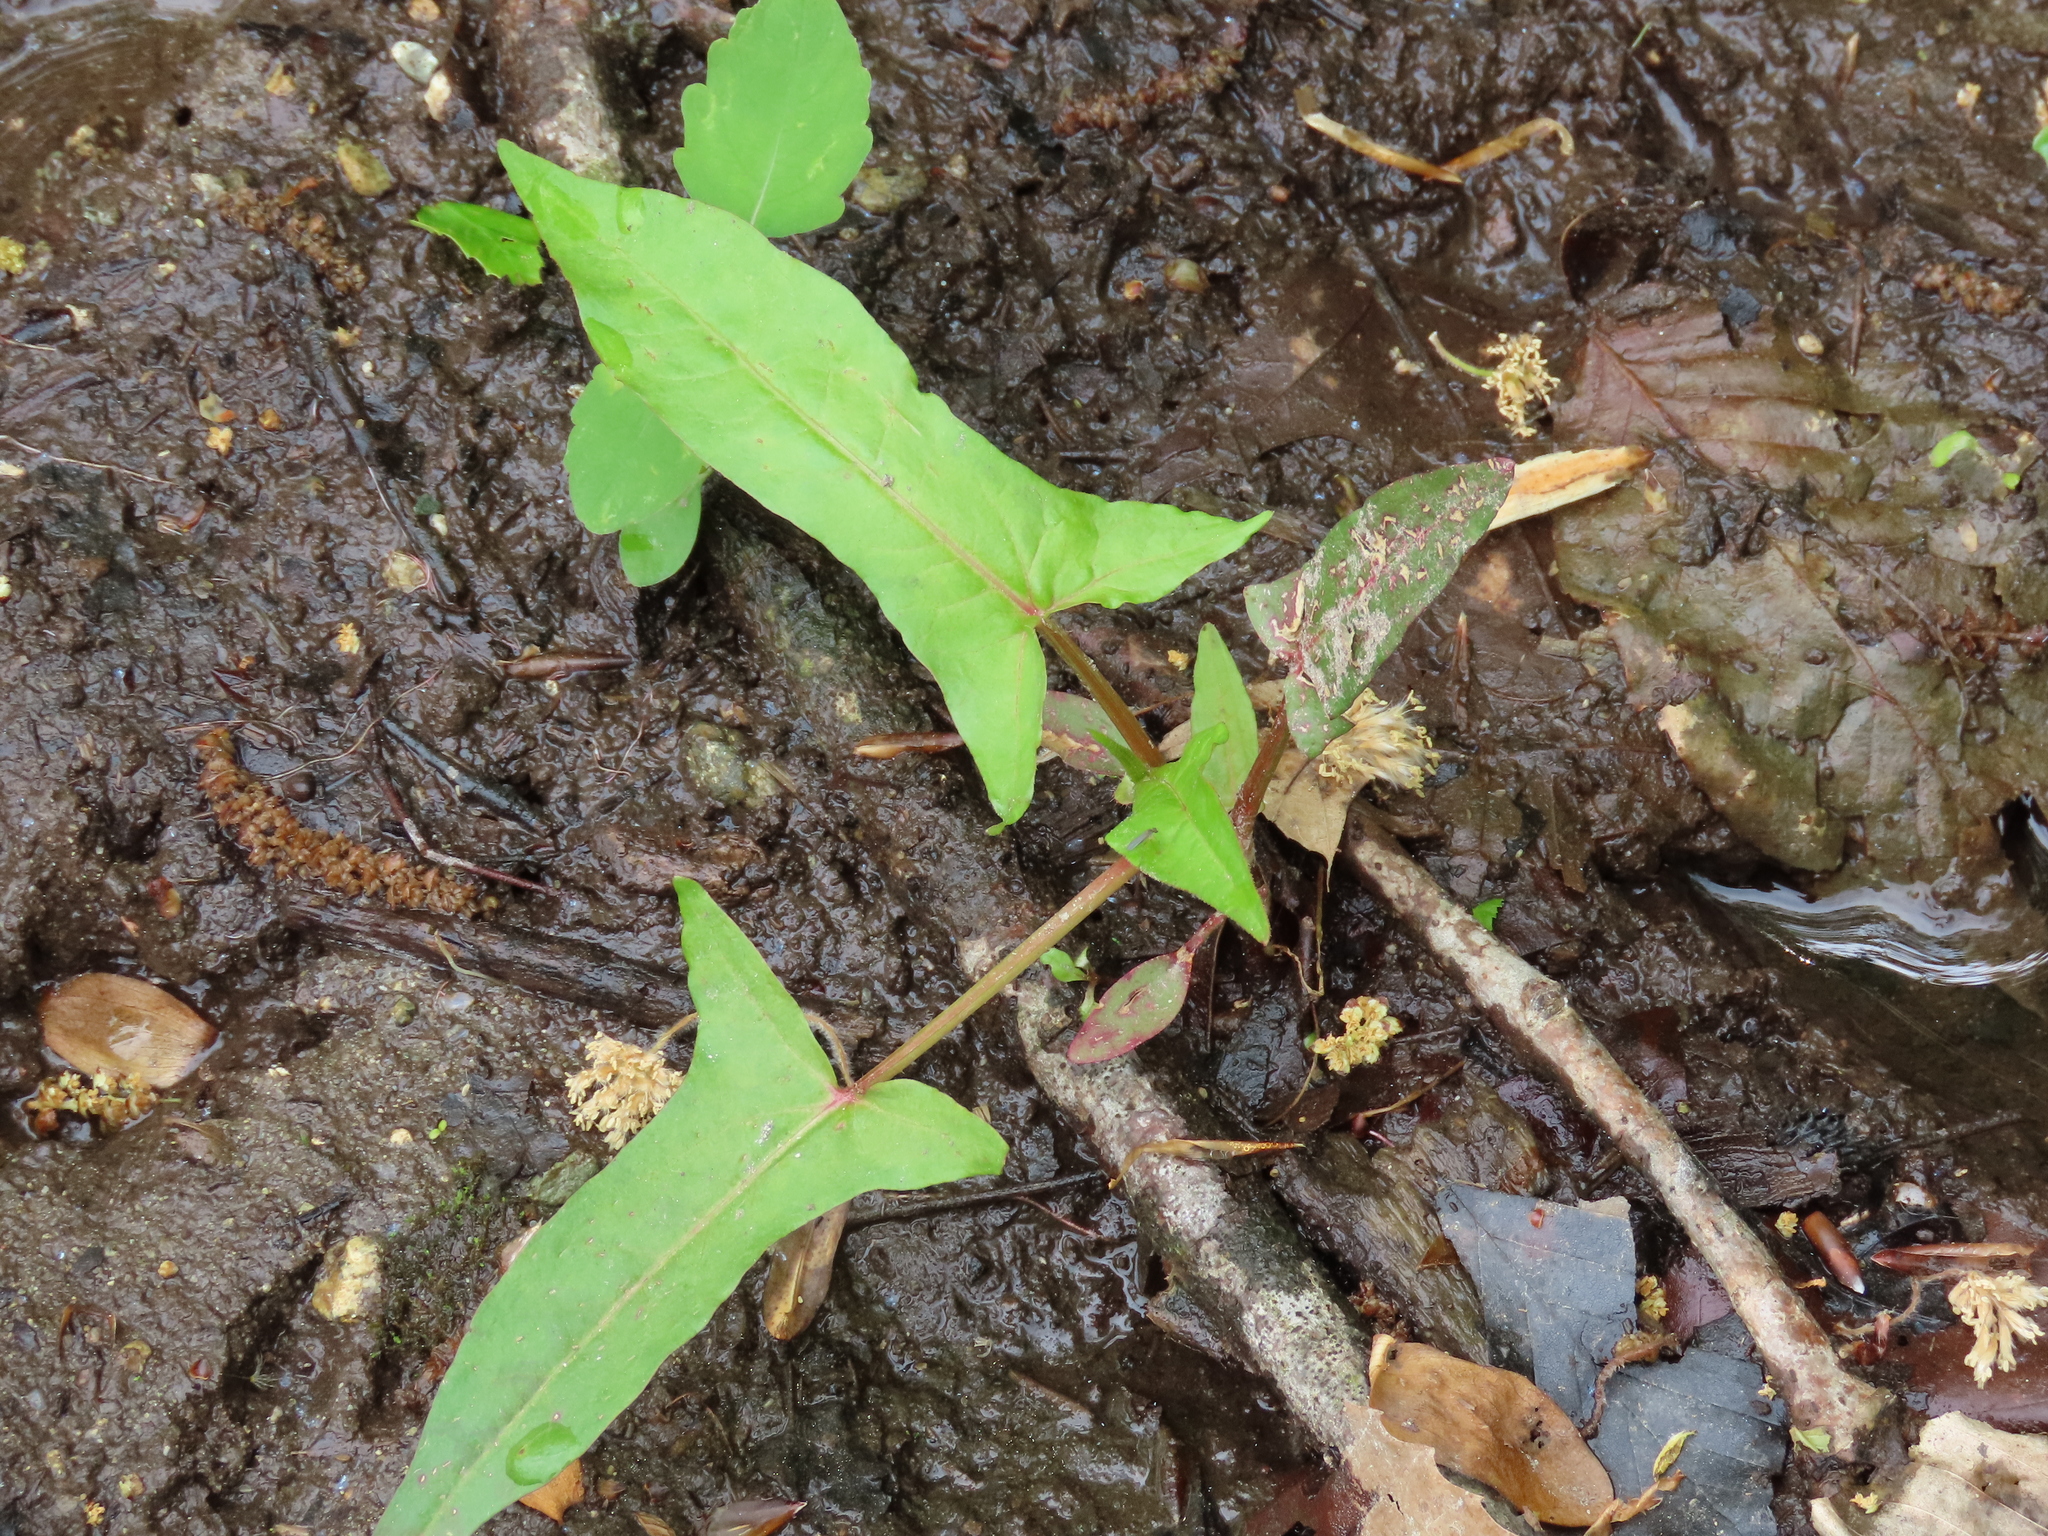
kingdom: Plantae
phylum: Tracheophyta
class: Magnoliopsida
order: Caryophyllales
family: Polygonaceae
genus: Persicaria
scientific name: Persicaria arifolia
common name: Halberd-leaved tear-thumb
